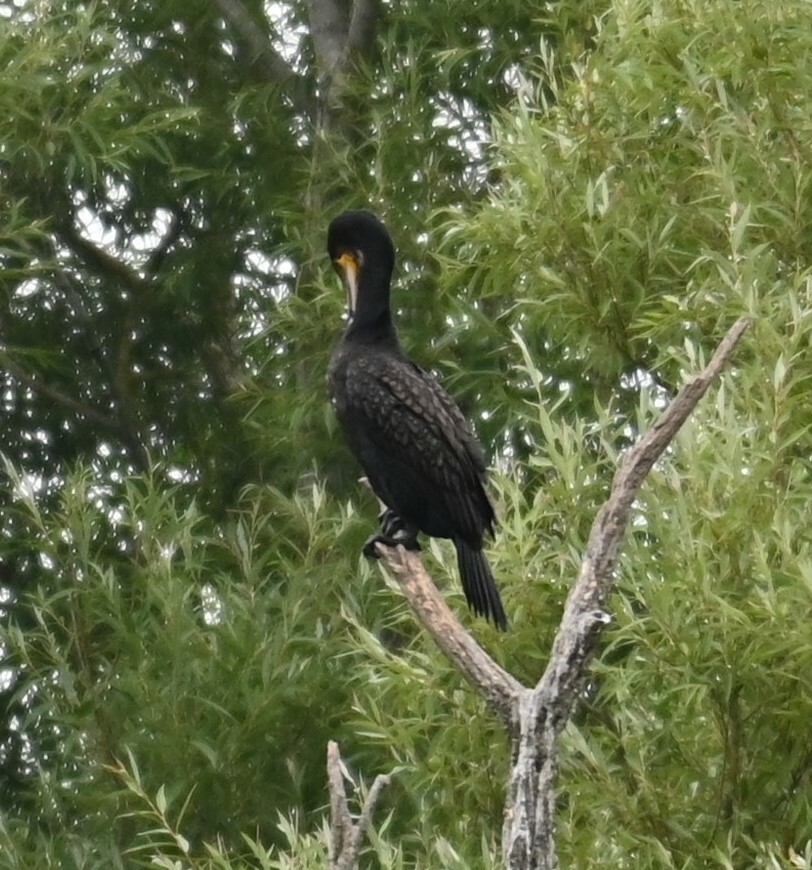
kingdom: Animalia
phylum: Chordata
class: Aves
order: Suliformes
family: Phalacrocoracidae
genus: Phalacrocorax
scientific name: Phalacrocorax carbo
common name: Great cormorant
